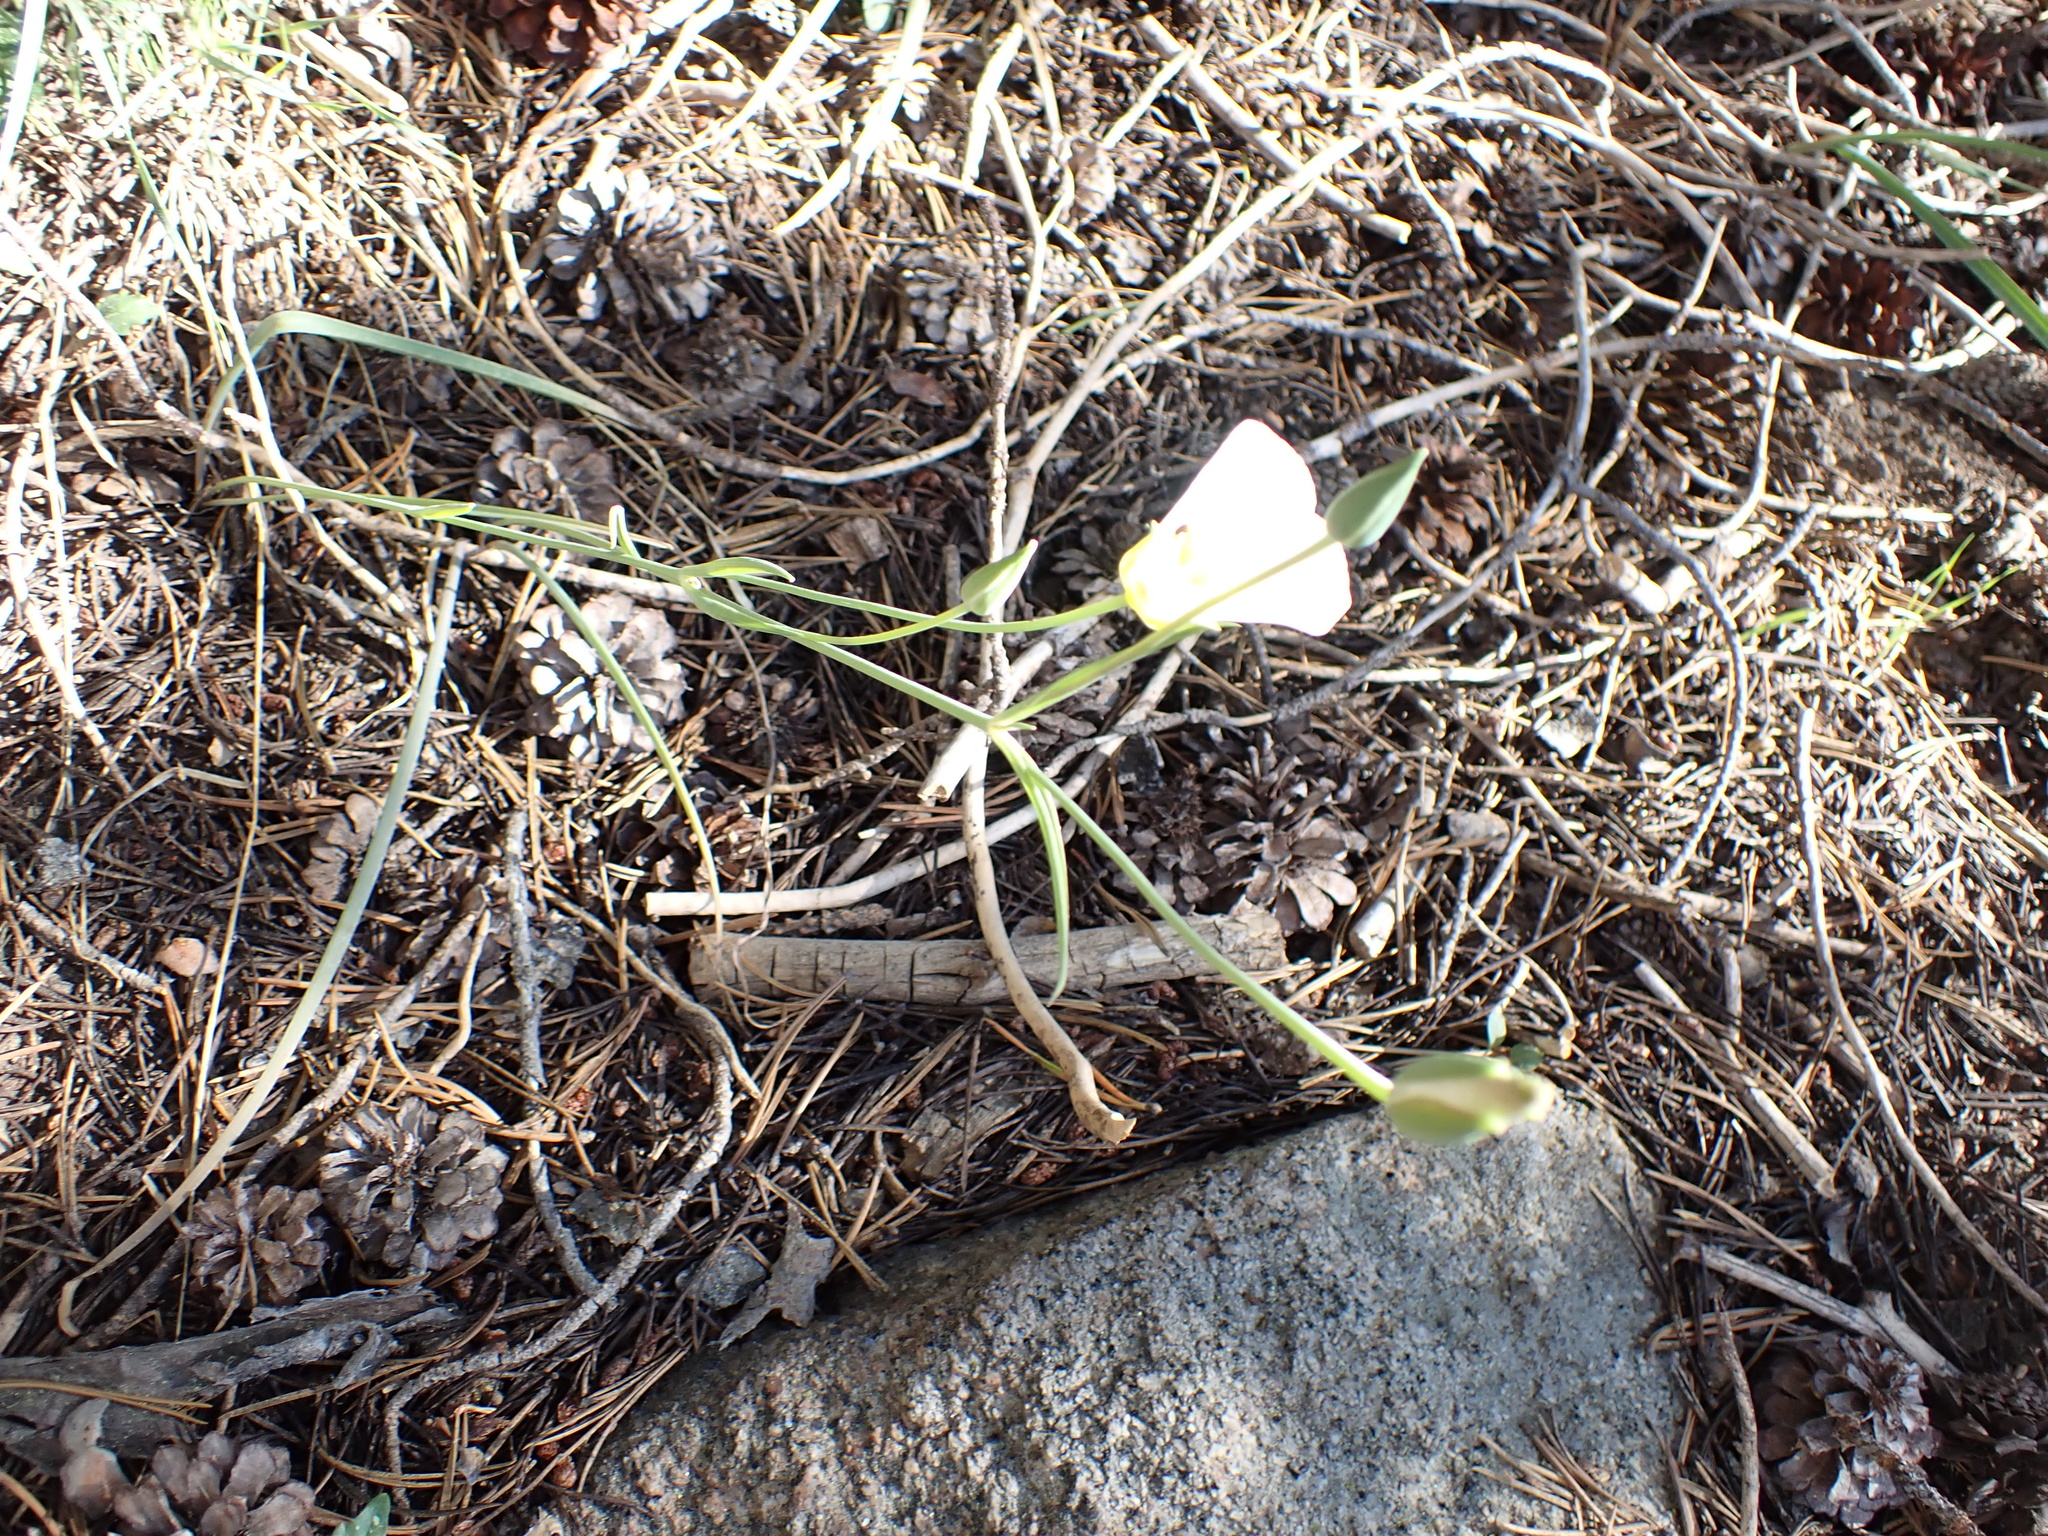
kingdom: Plantae
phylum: Tracheophyta
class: Liliopsida
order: Liliales
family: Liliaceae
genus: Calochortus
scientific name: Calochortus leichtlinii
